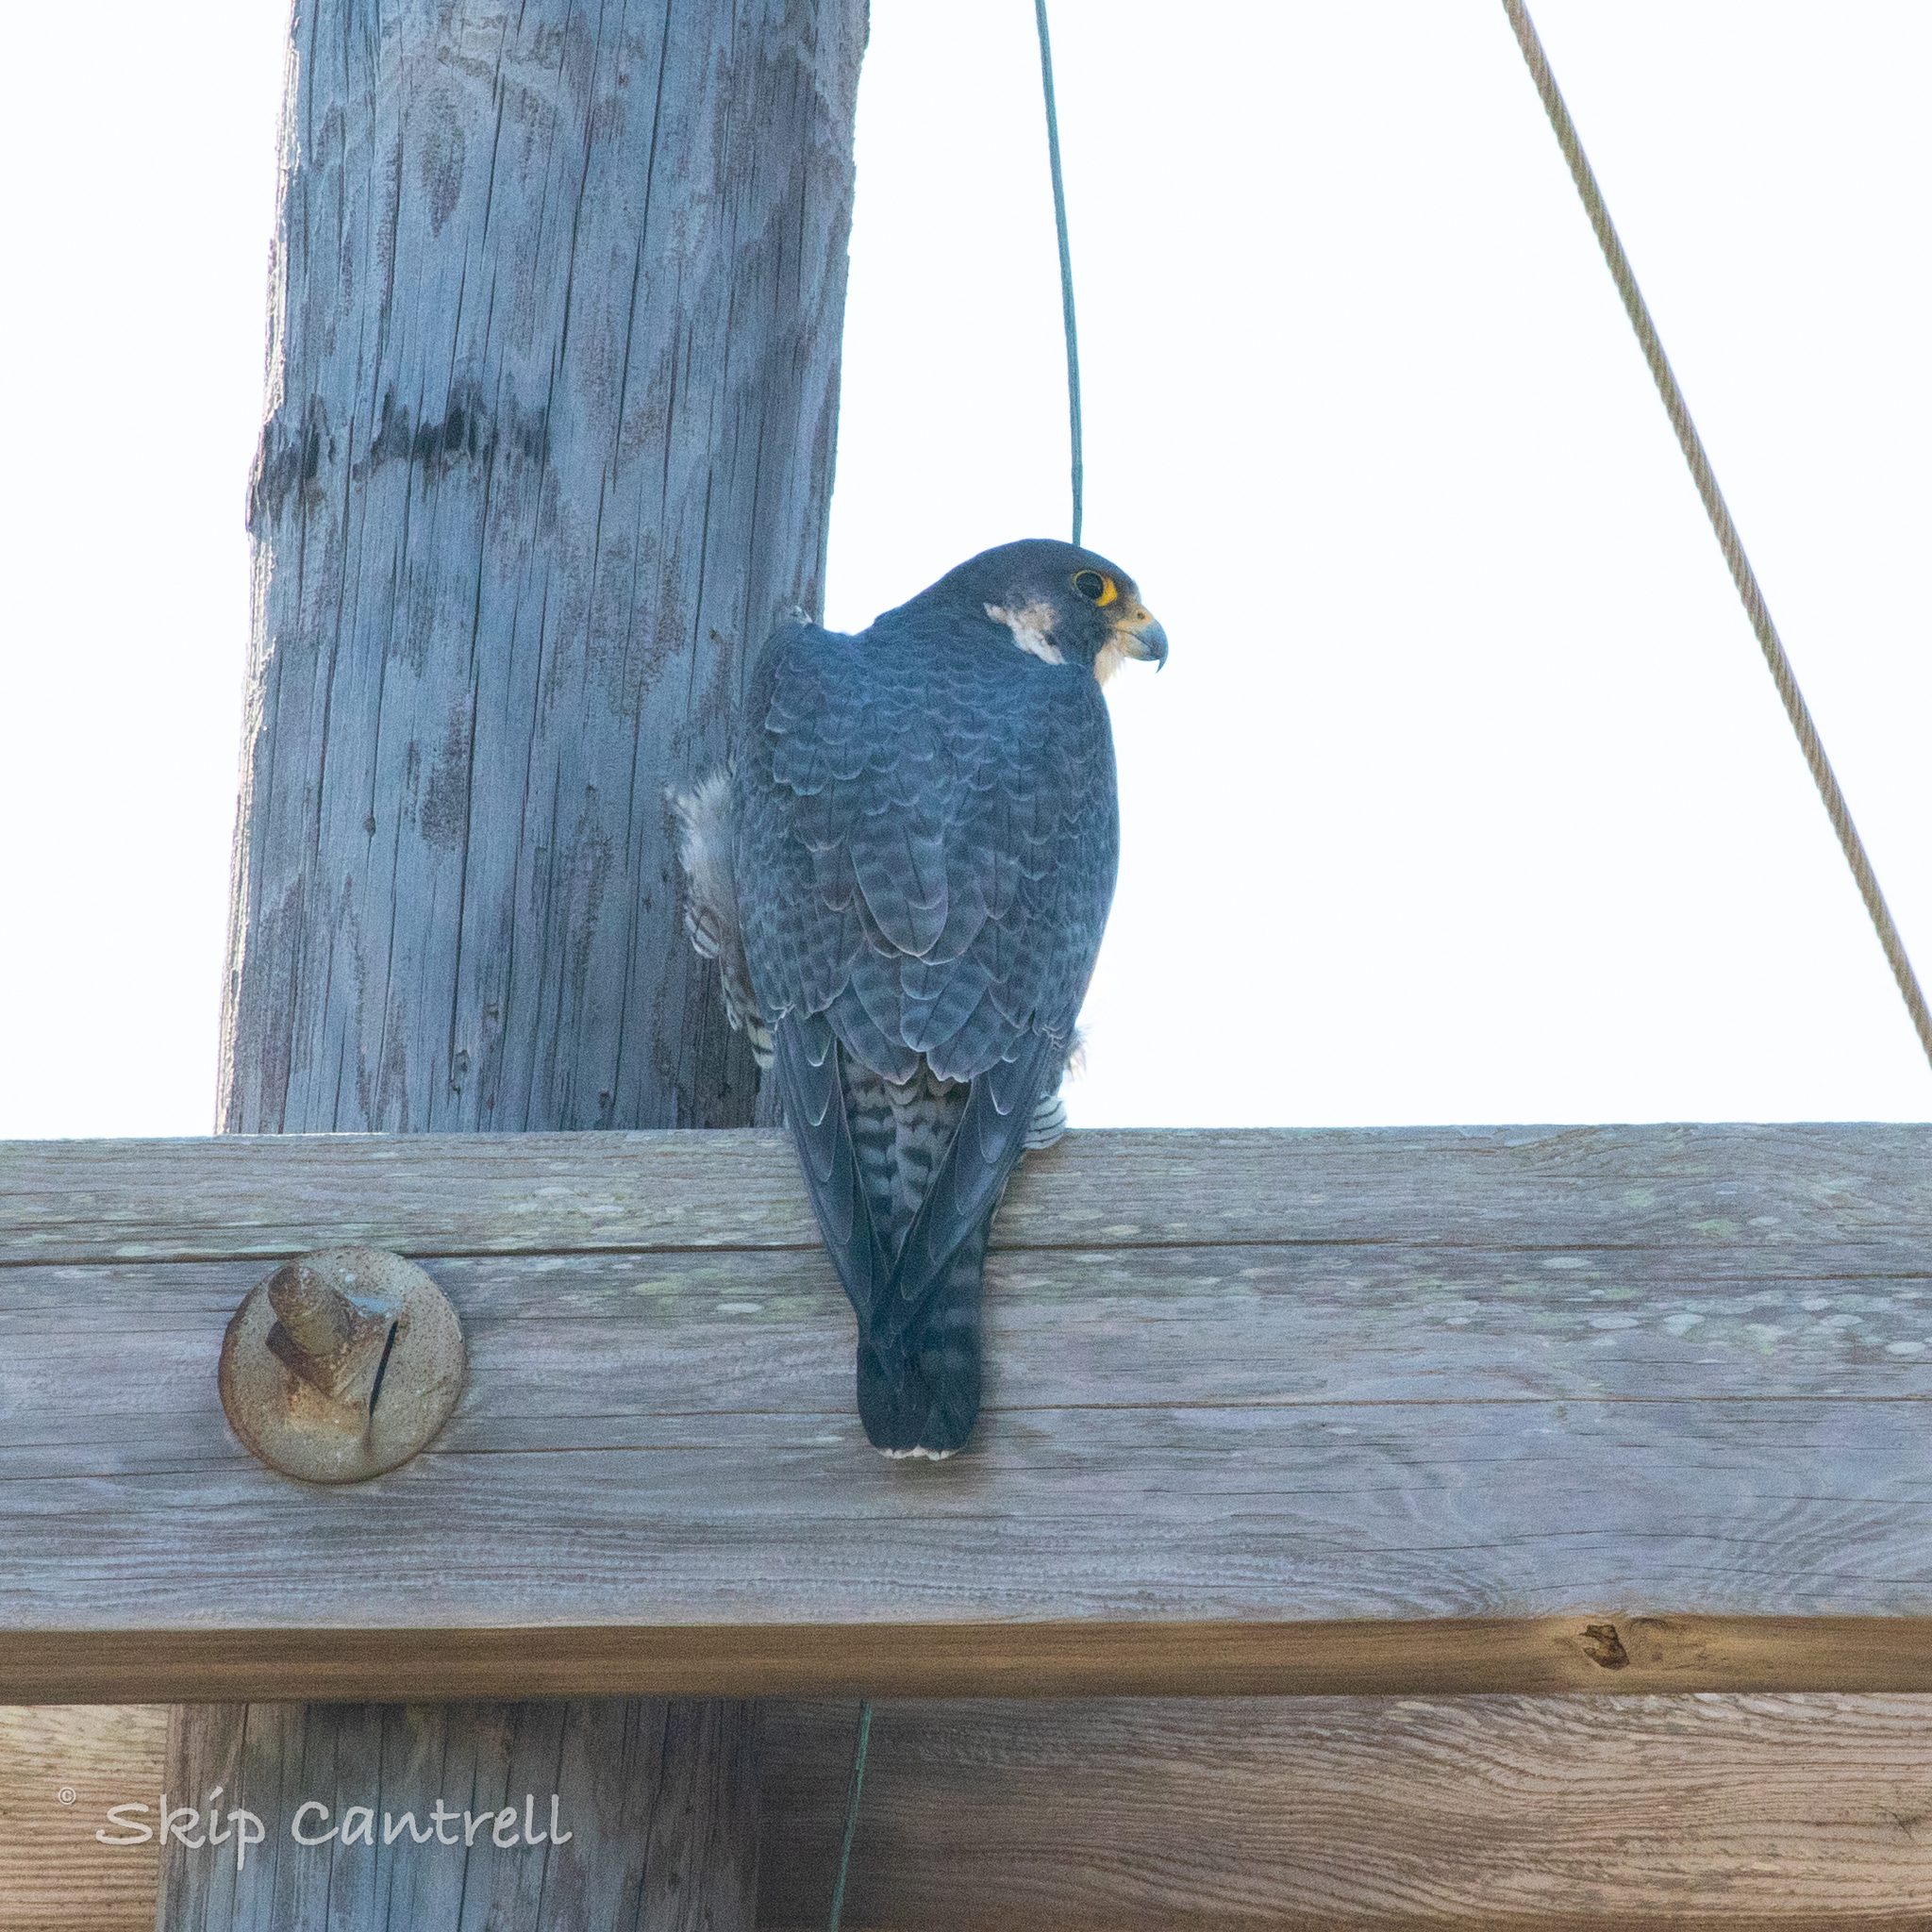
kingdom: Animalia
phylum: Chordata
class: Aves
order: Falconiformes
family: Falconidae
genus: Falco
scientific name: Falco peregrinus
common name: Peregrine falcon
